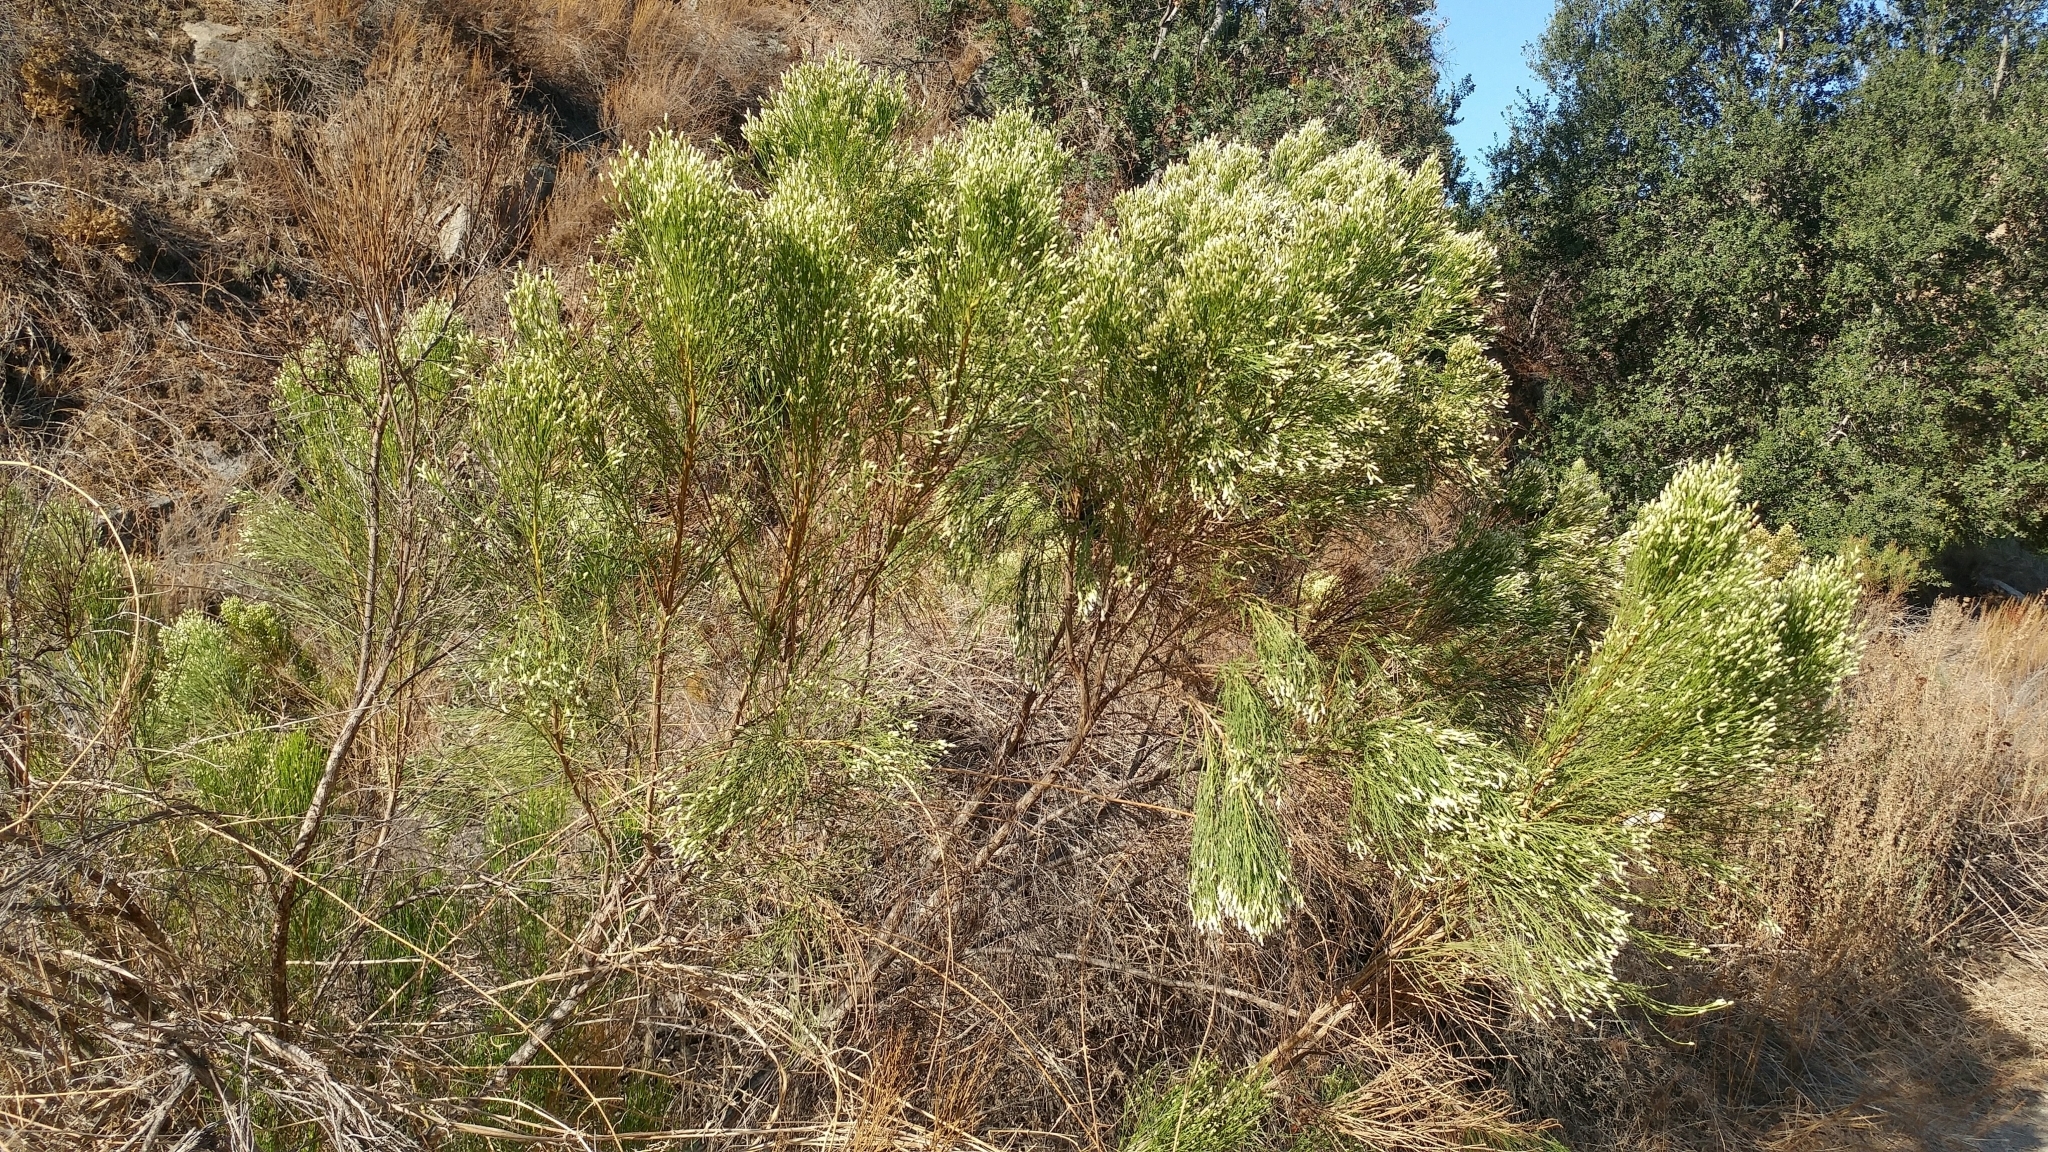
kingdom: Plantae
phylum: Tracheophyta
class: Magnoliopsida
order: Asterales
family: Asteraceae
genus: Baccharis
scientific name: Baccharis sarothroides
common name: Desert-broom
